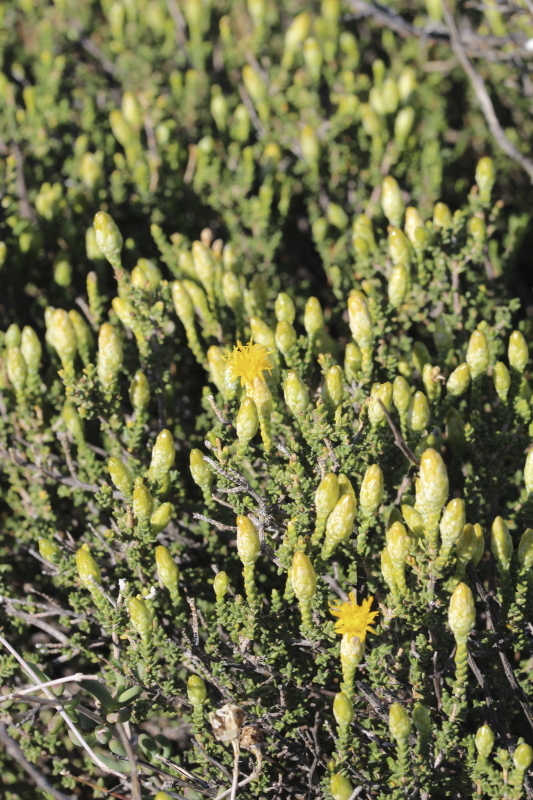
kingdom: Plantae
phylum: Tracheophyta
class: Magnoliopsida
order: Asterales
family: Asteraceae
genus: Pteronia
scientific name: Pteronia glomerata
